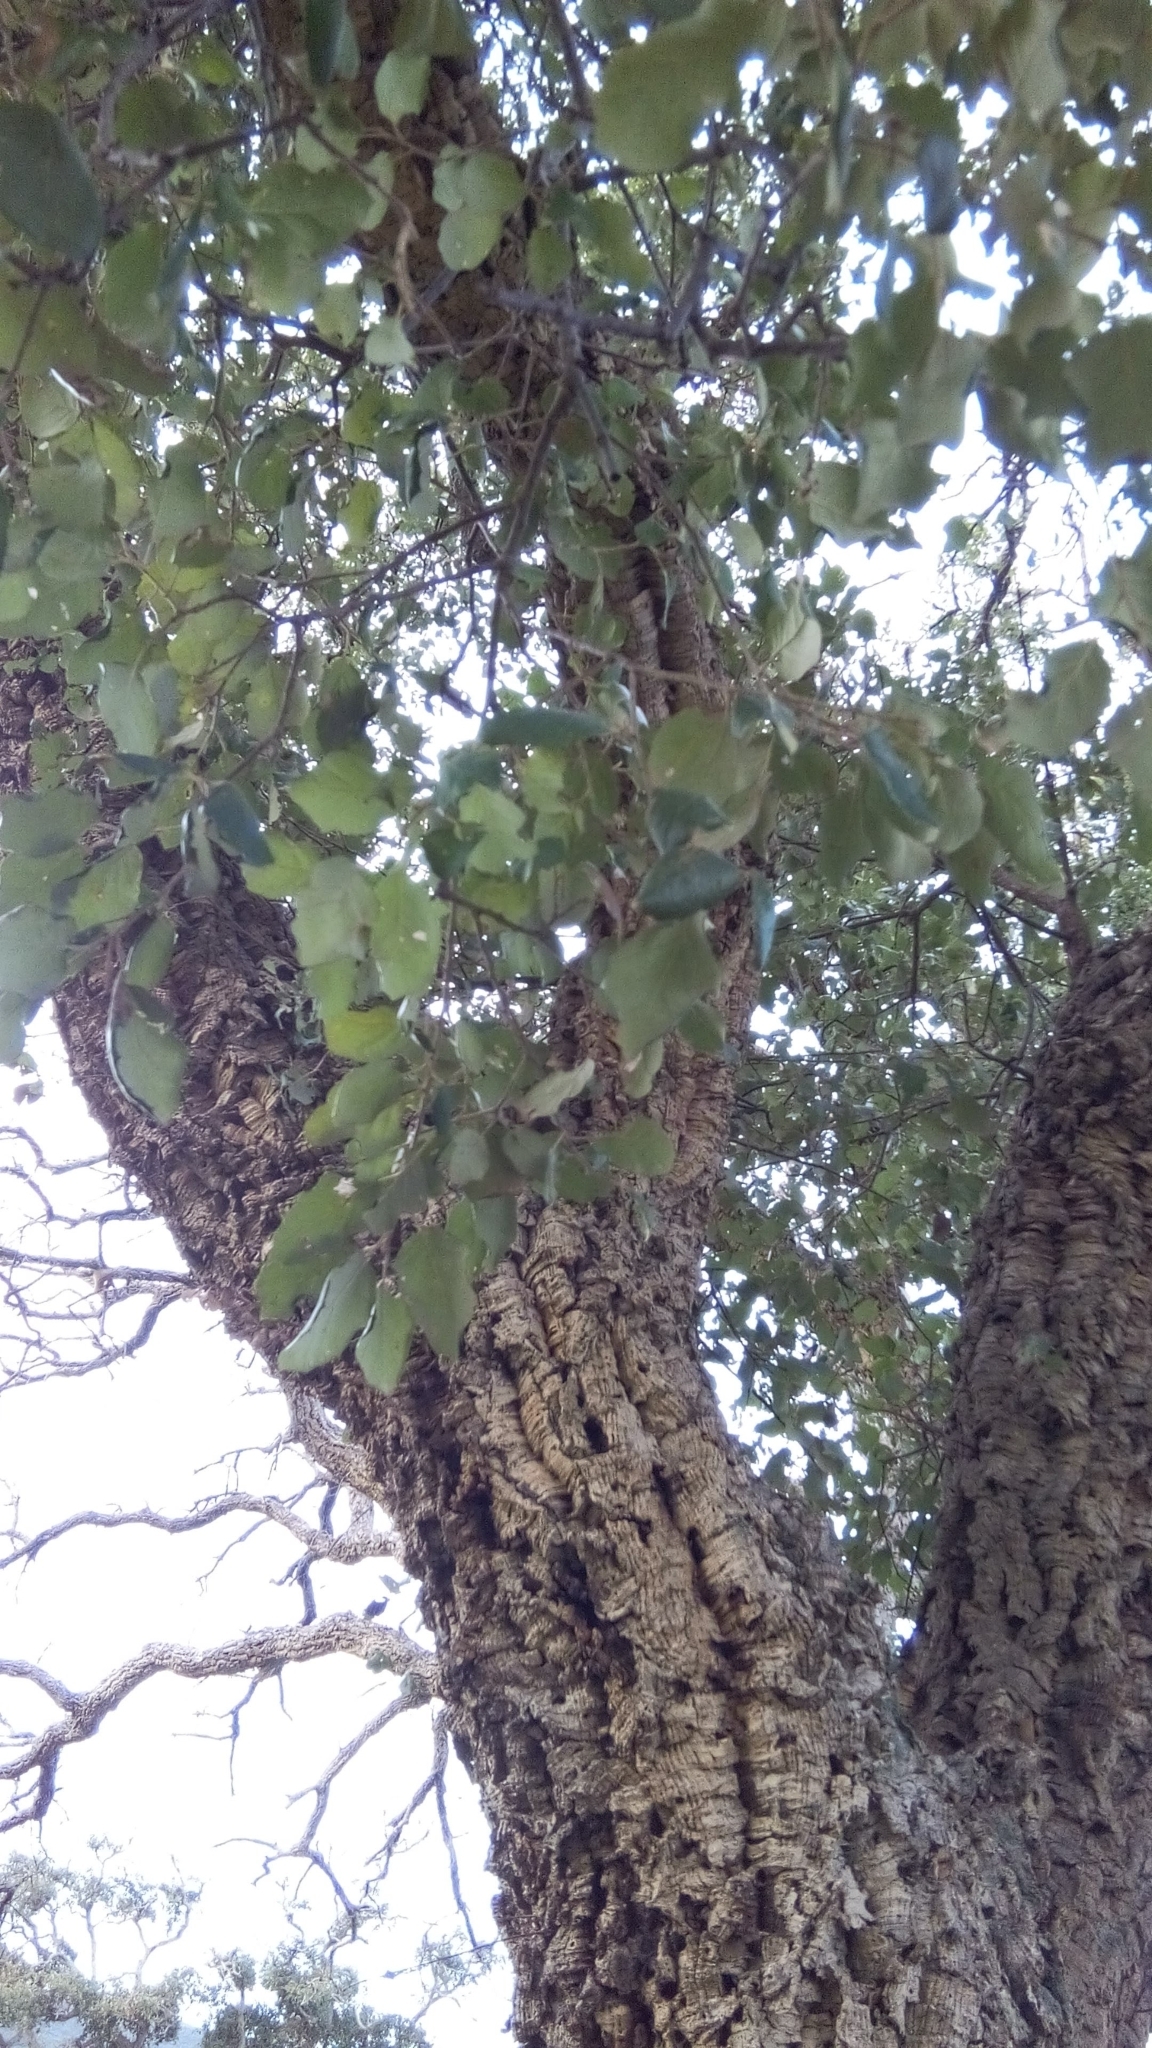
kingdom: Plantae
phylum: Tracheophyta
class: Magnoliopsida
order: Fagales
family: Fagaceae
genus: Quercus
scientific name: Quercus suber
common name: Cork oak
